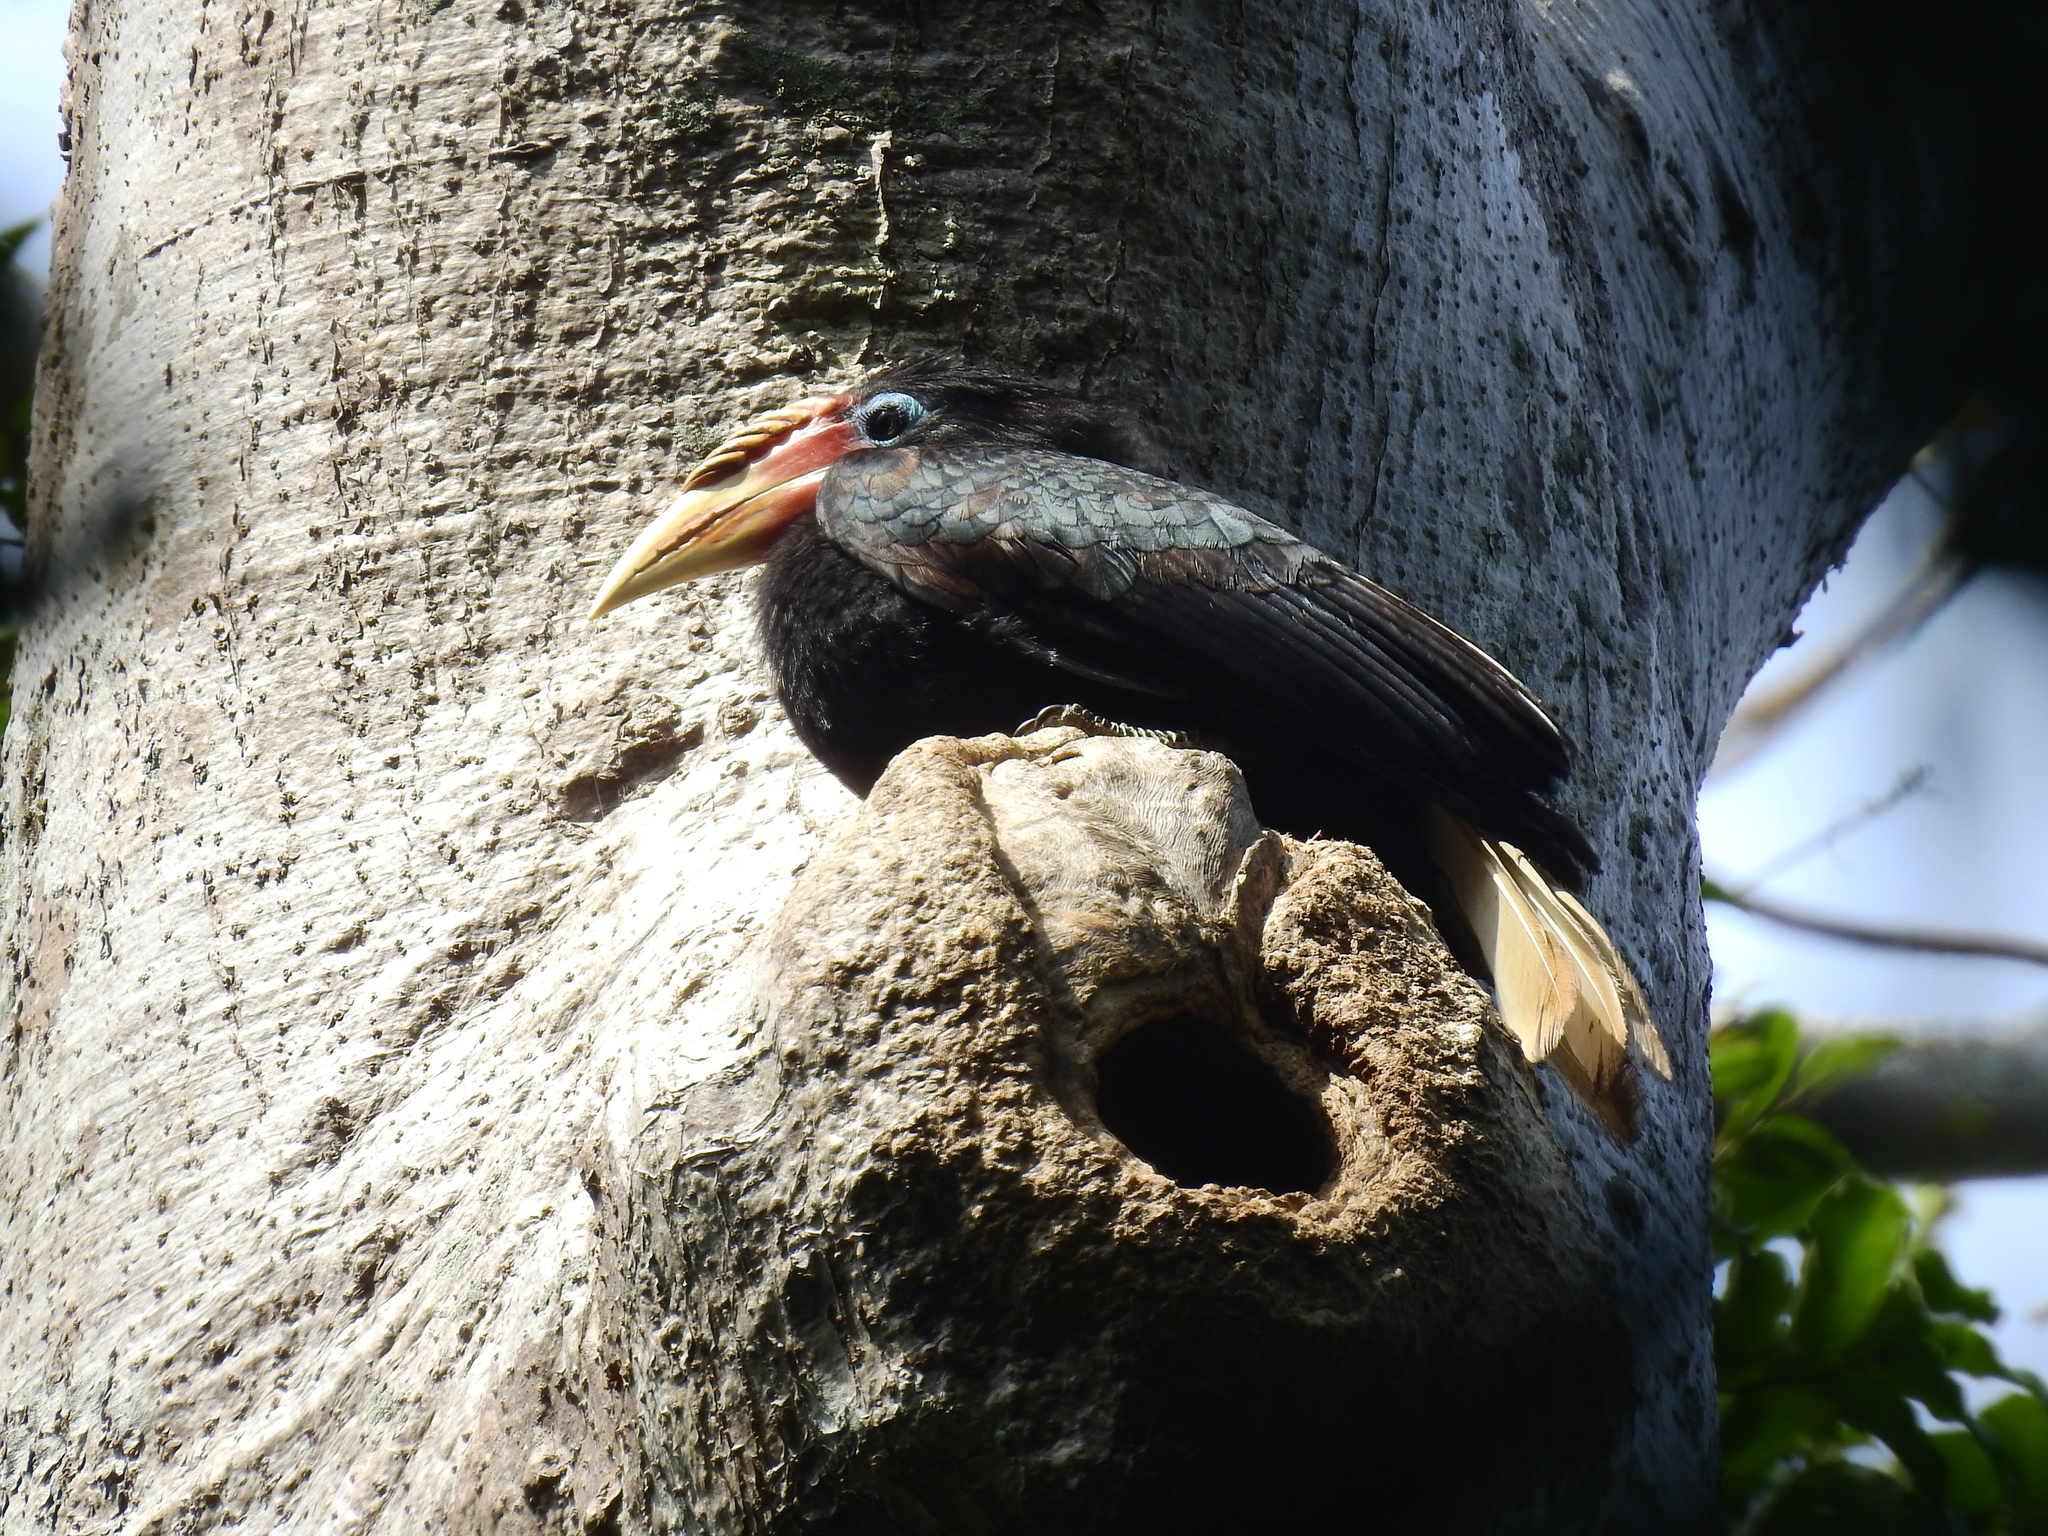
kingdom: Animalia
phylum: Chordata
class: Aves
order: Bucerotiformes
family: Bucerotidae
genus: Rhyticeros
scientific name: Rhyticeros narcondami
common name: Narcondam hornbill
